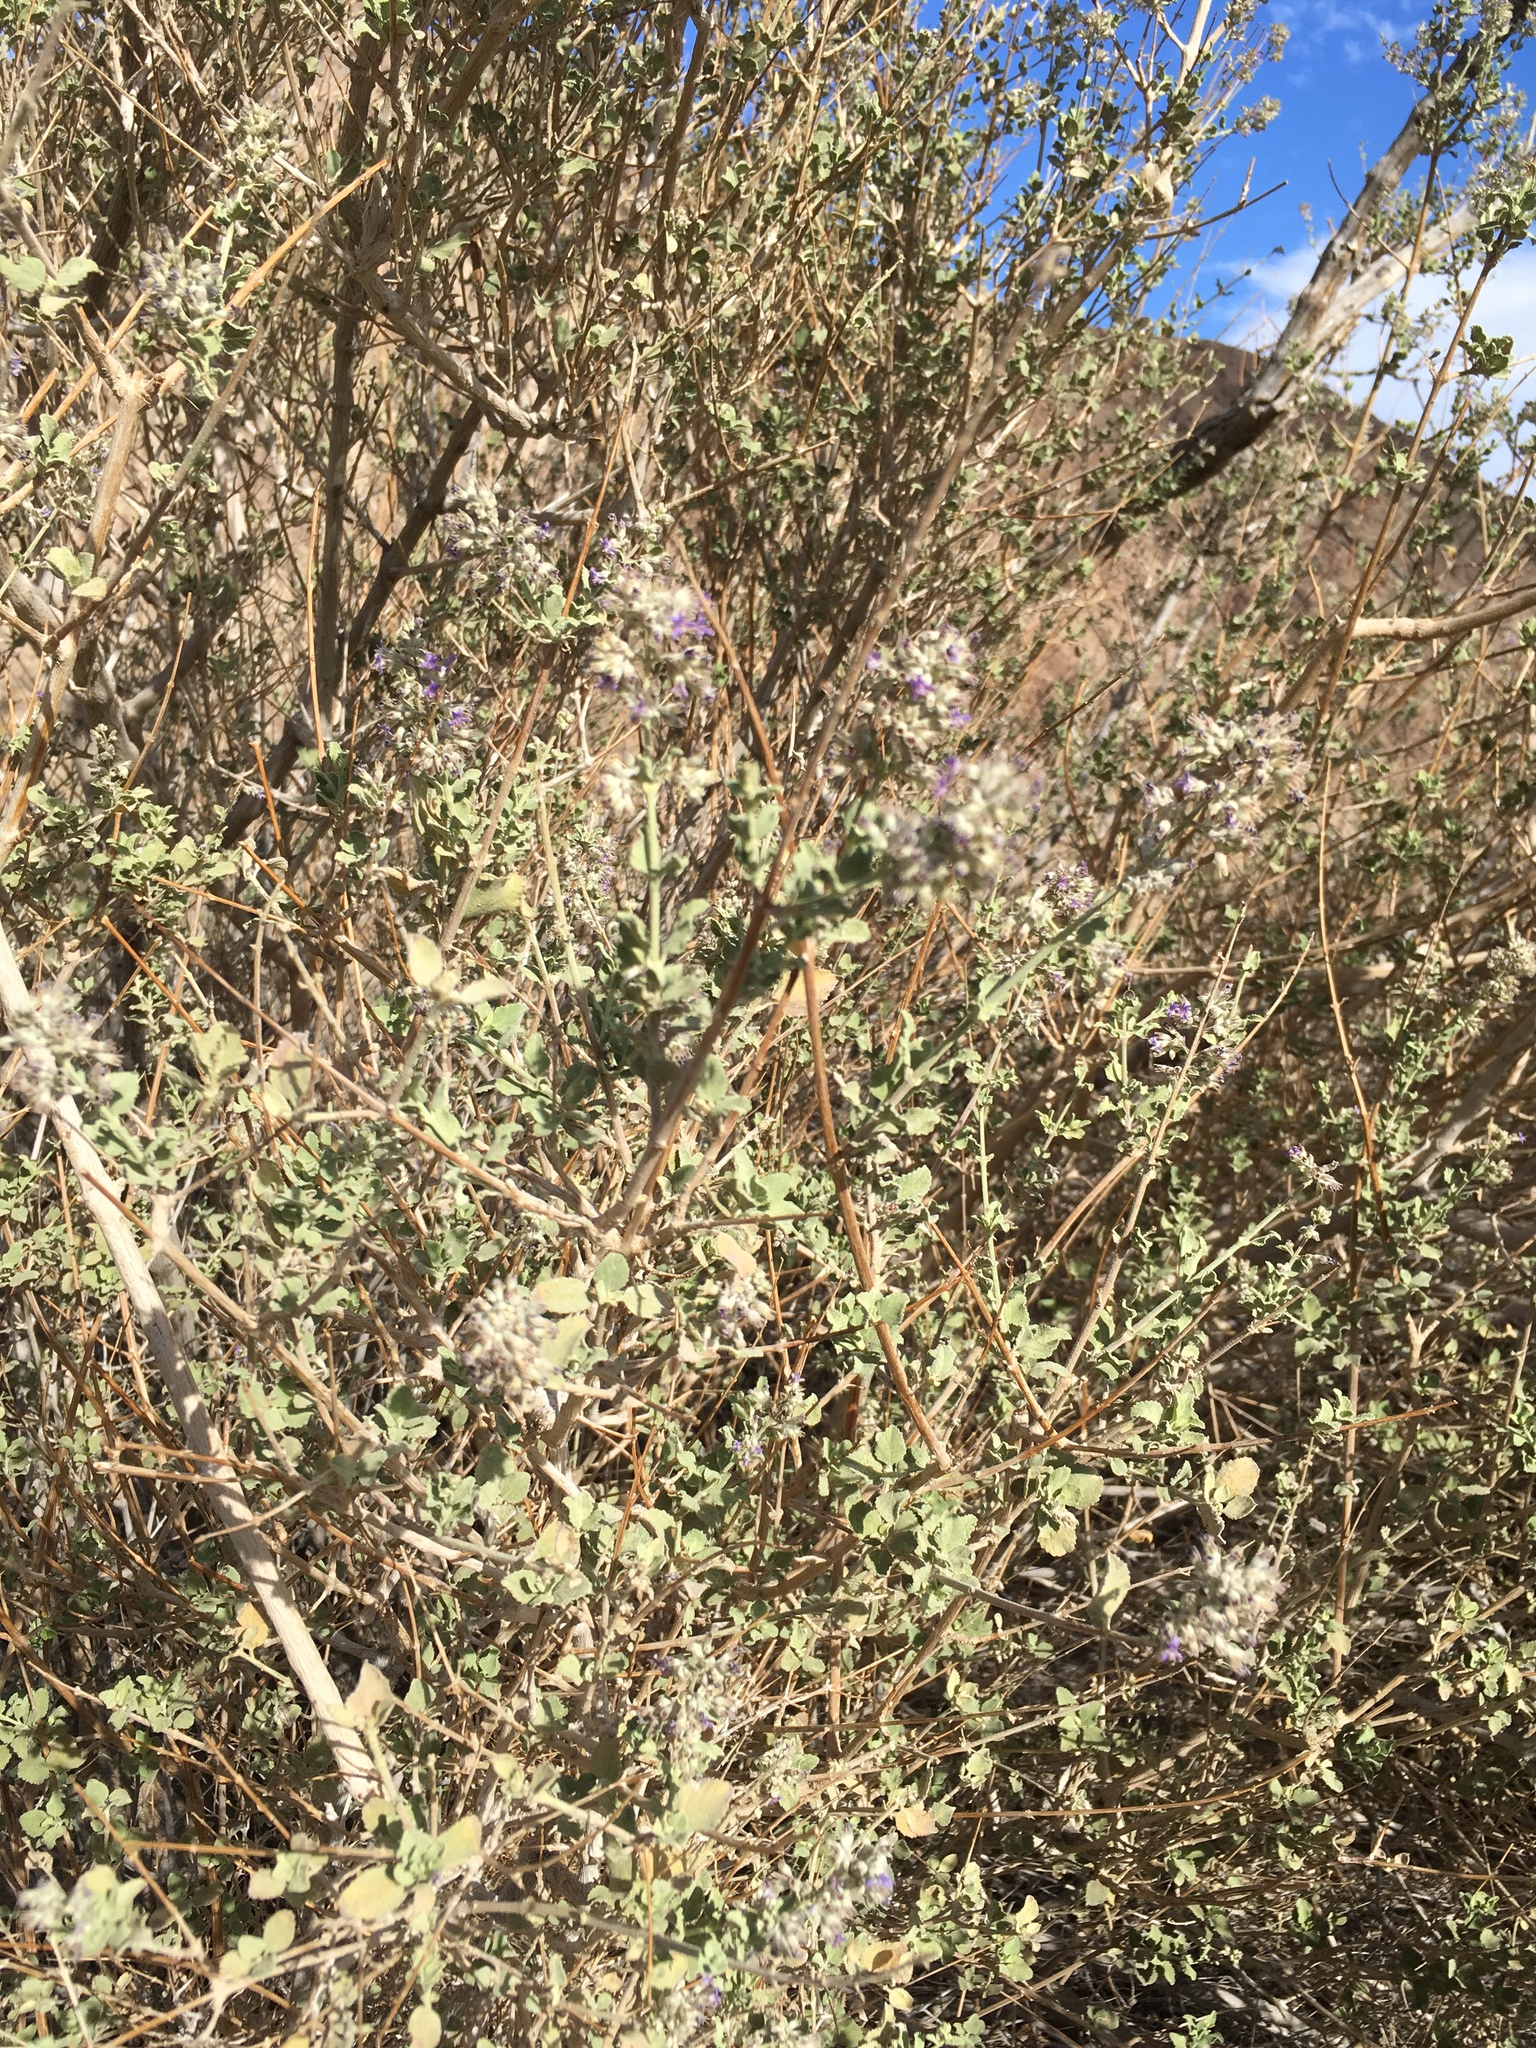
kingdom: Plantae
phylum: Tracheophyta
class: Magnoliopsida
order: Lamiales
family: Lamiaceae
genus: Condea
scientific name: Condea emoryi
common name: Chia
